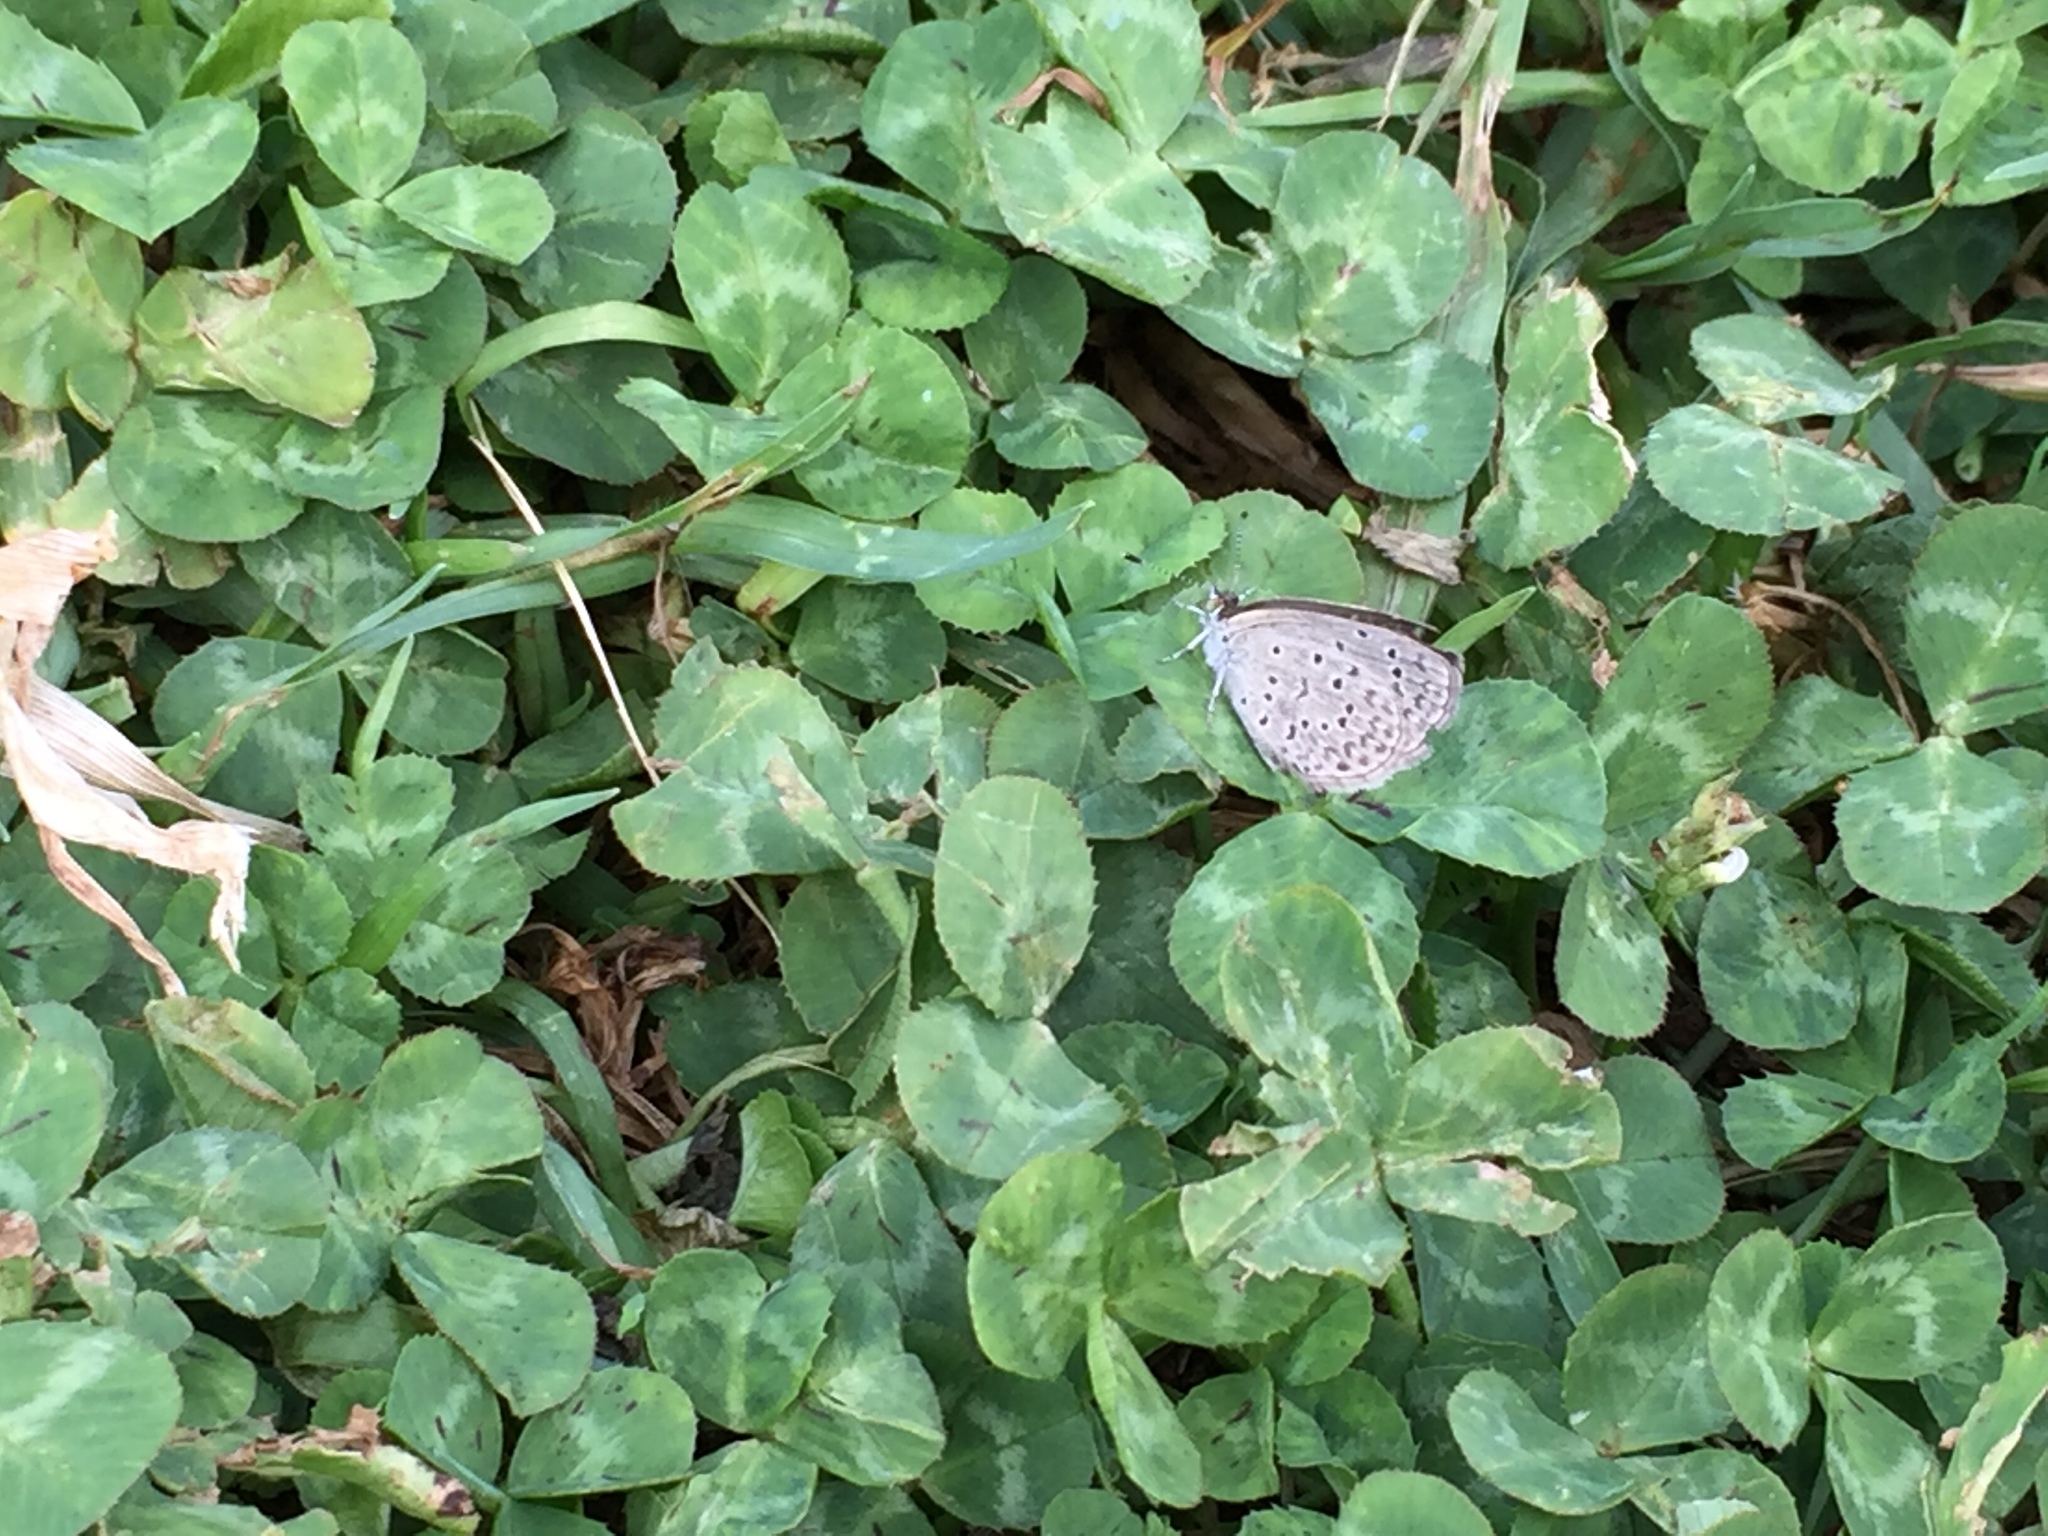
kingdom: Animalia
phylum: Arthropoda
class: Insecta
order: Lepidoptera
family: Lycaenidae
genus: Zizeeria
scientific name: Zizeeria knysna
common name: African grass blue
